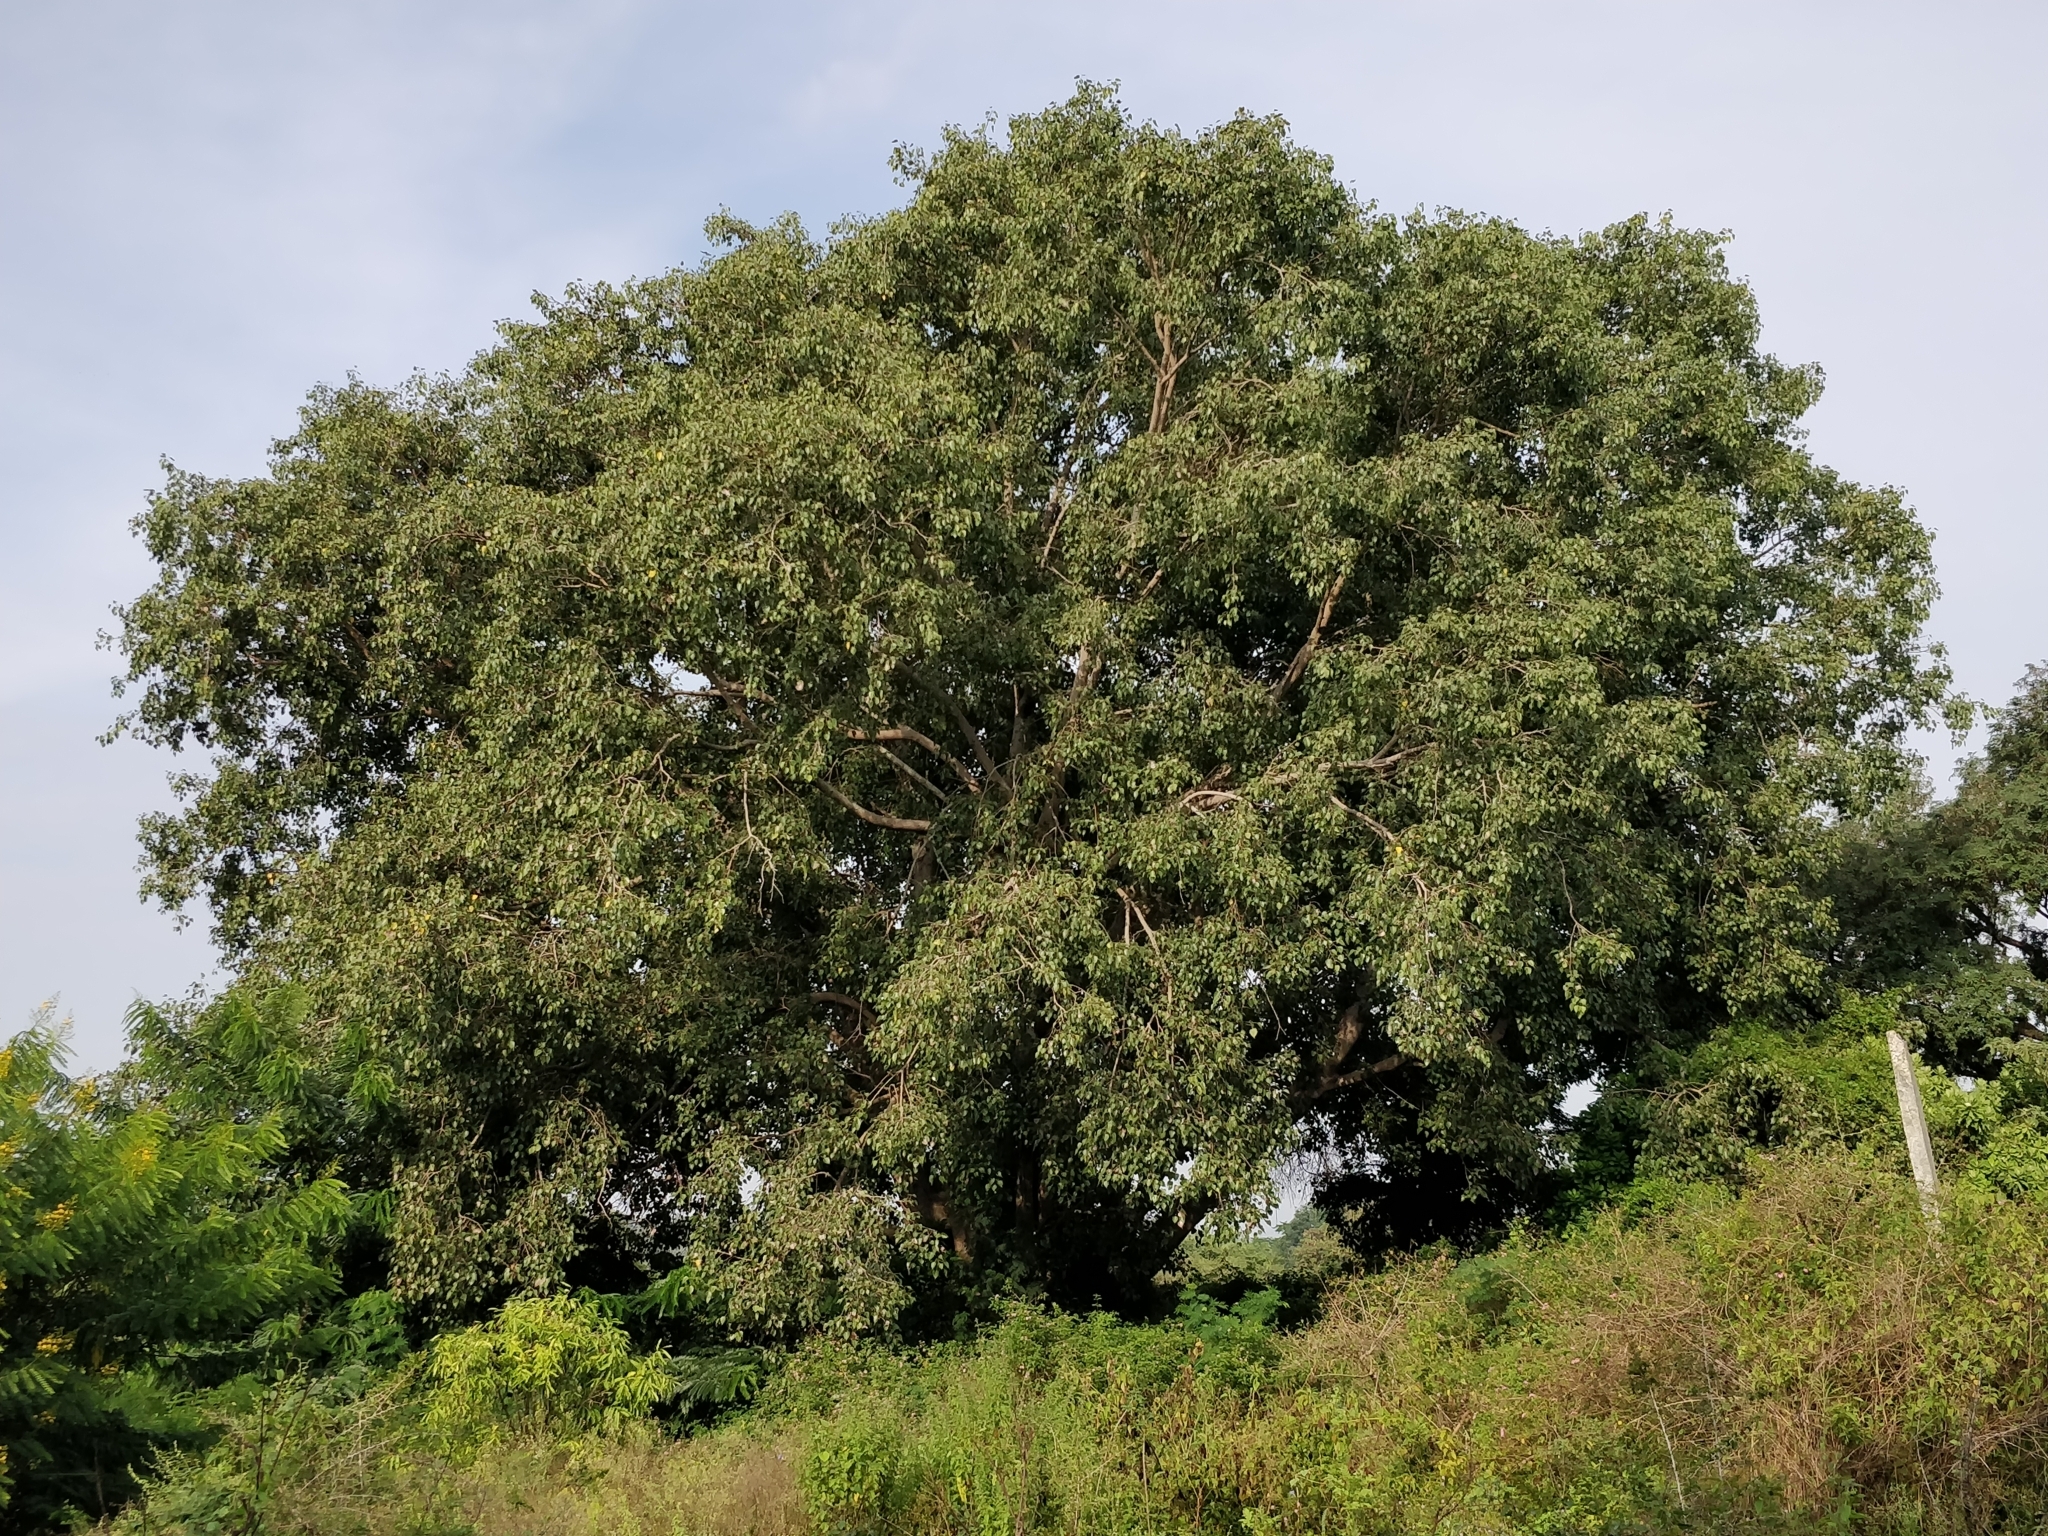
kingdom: Plantae
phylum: Tracheophyta
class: Magnoliopsida
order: Rosales
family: Moraceae
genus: Ficus
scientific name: Ficus religiosa
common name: Bodhi tree
